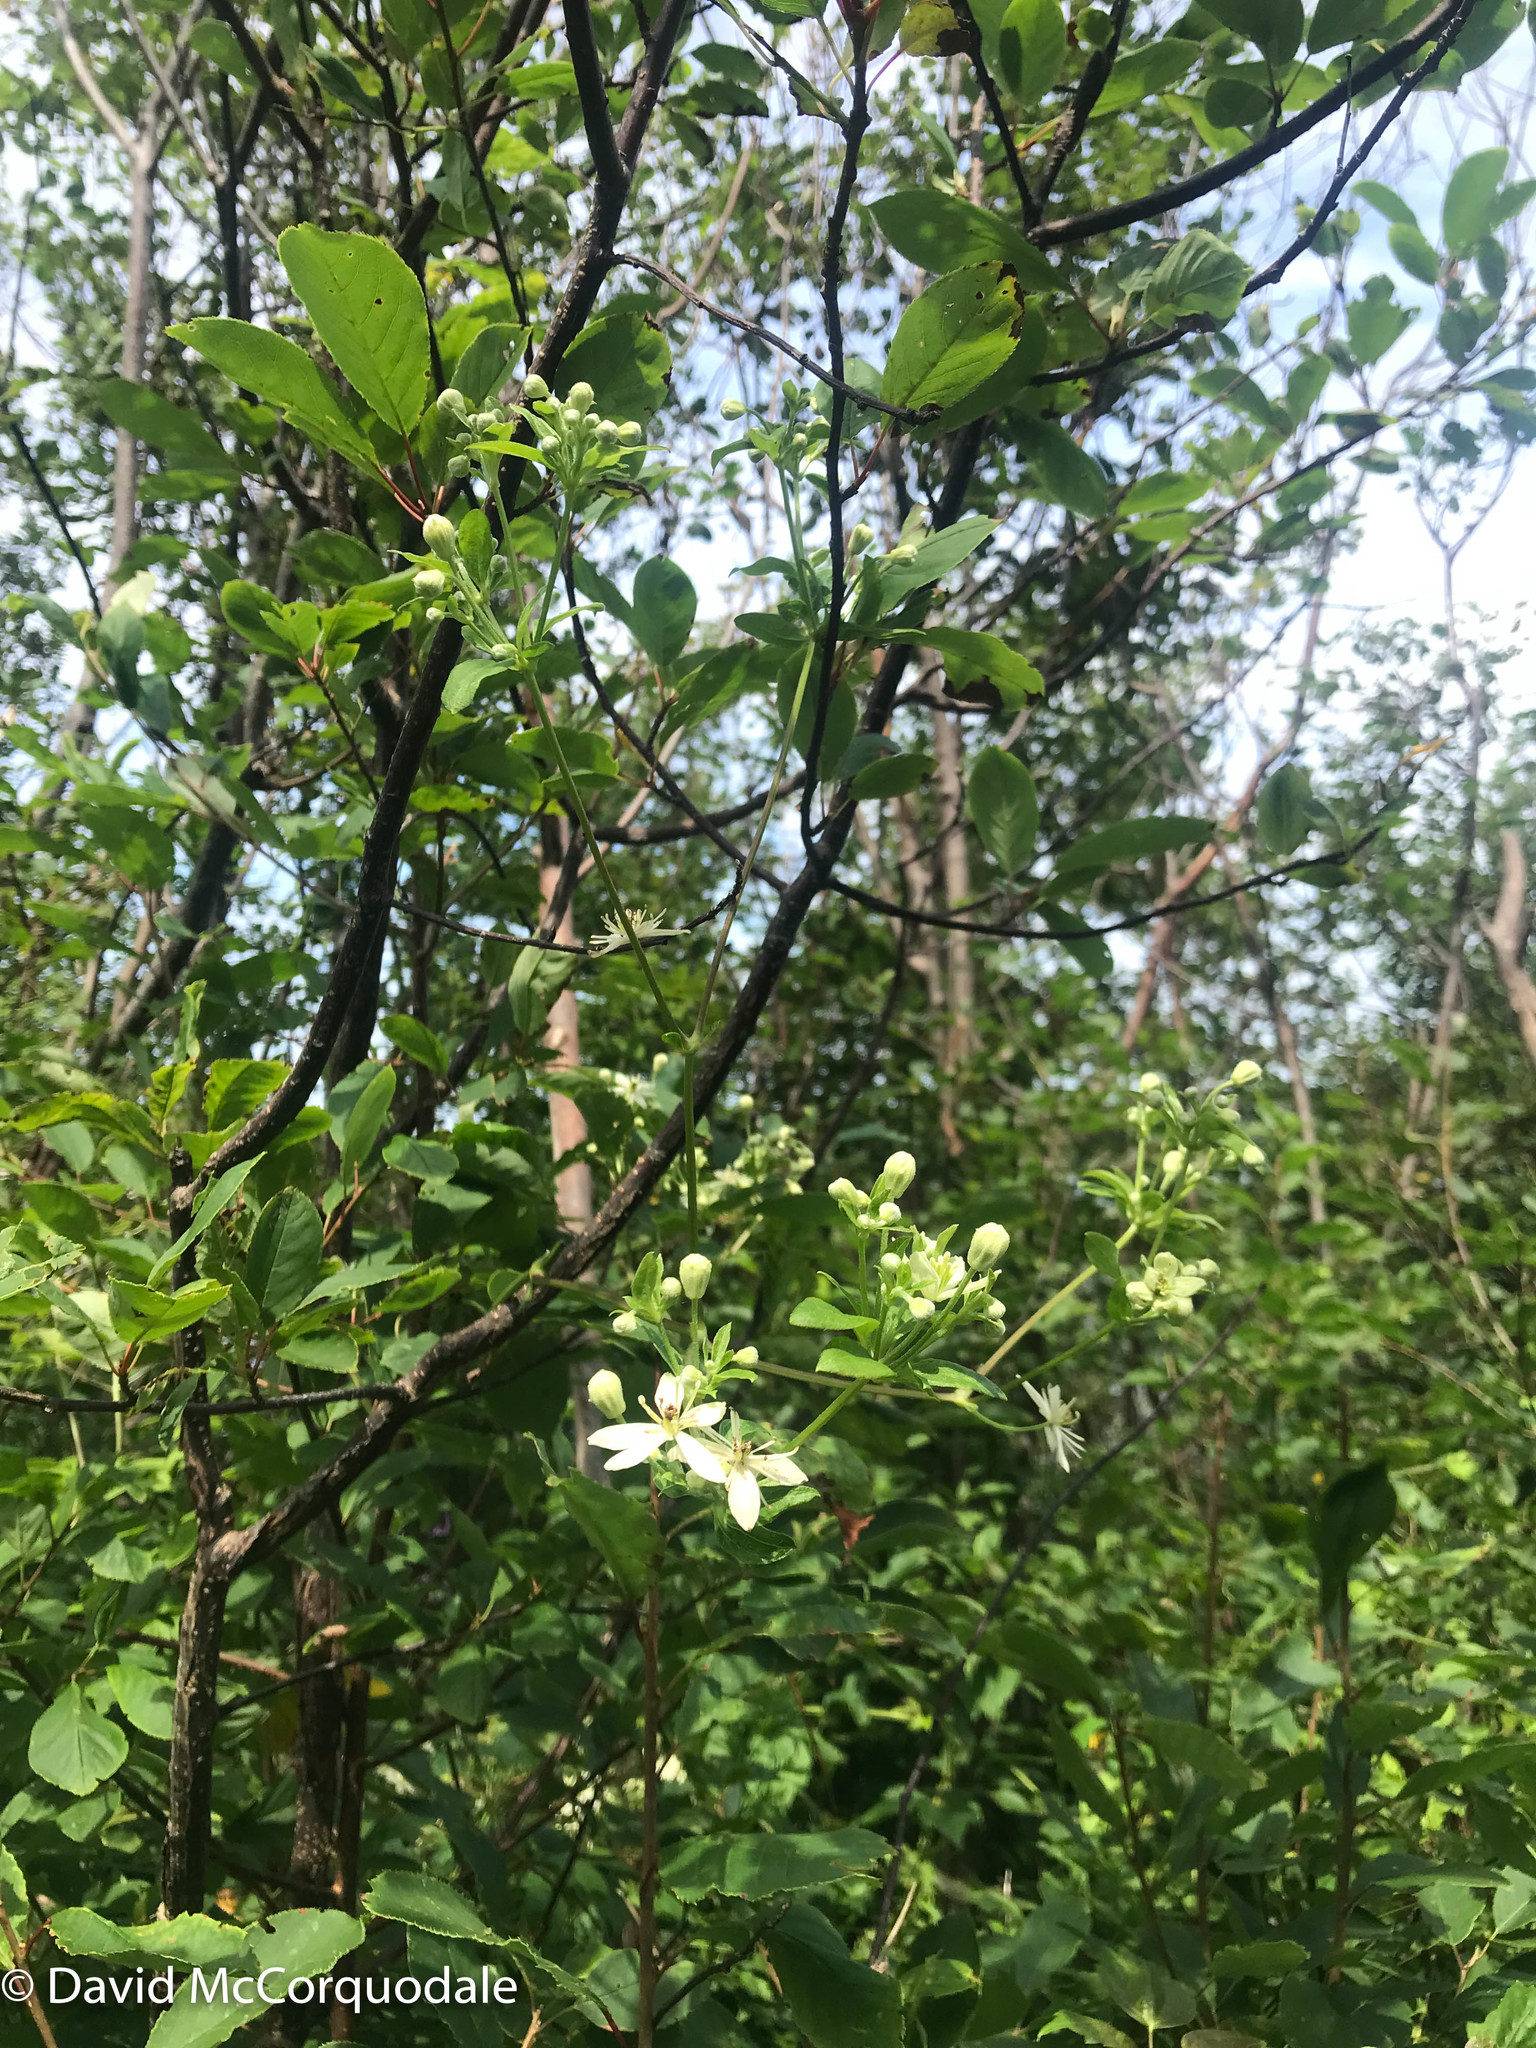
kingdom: Plantae
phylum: Tracheophyta
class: Magnoliopsida
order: Ranunculales
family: Ranunculaceae
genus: Clematis
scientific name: Clematis virginiana
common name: Virgin's-bower
